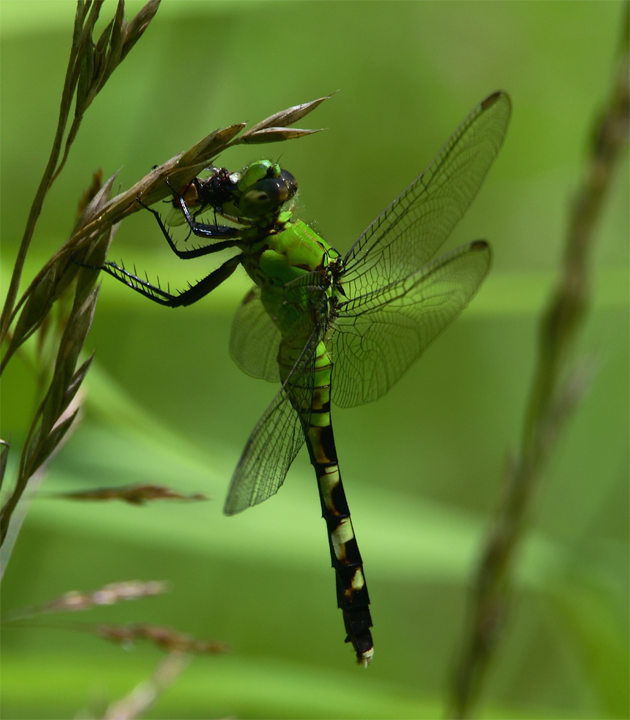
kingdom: Animalia
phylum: Arthropoda
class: Insecta
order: Odonata
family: Libellulidae
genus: Erythemis
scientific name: Erythemis simplicicollis
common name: Eastern pondhawk
